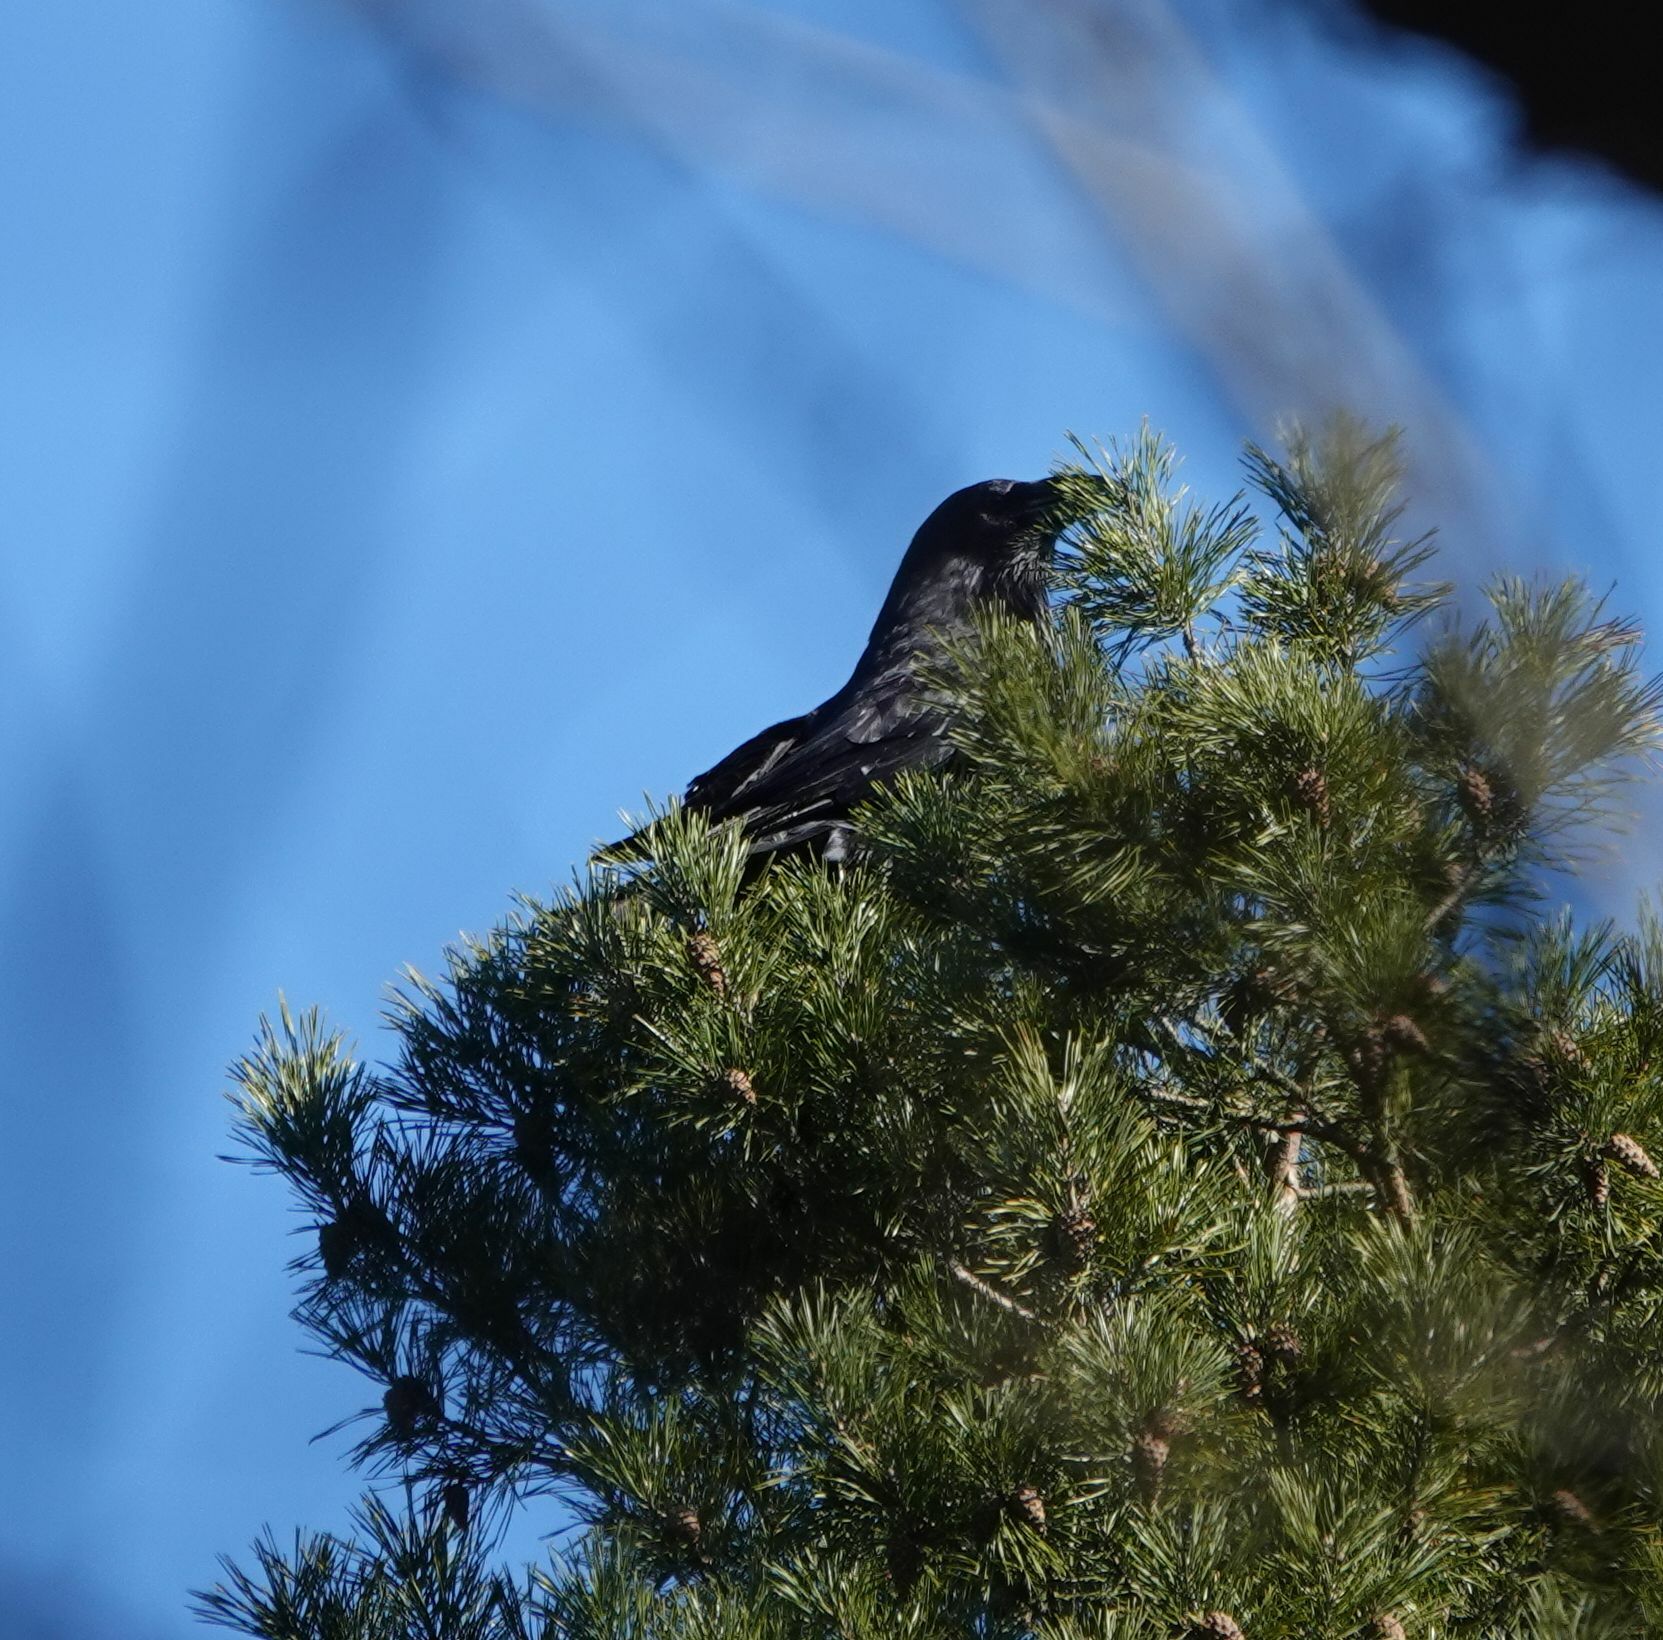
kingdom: Animalia
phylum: Chordata
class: Aves
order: Passeriformes
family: Corvidae
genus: Corvus
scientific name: Corvus corax
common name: Common raven
